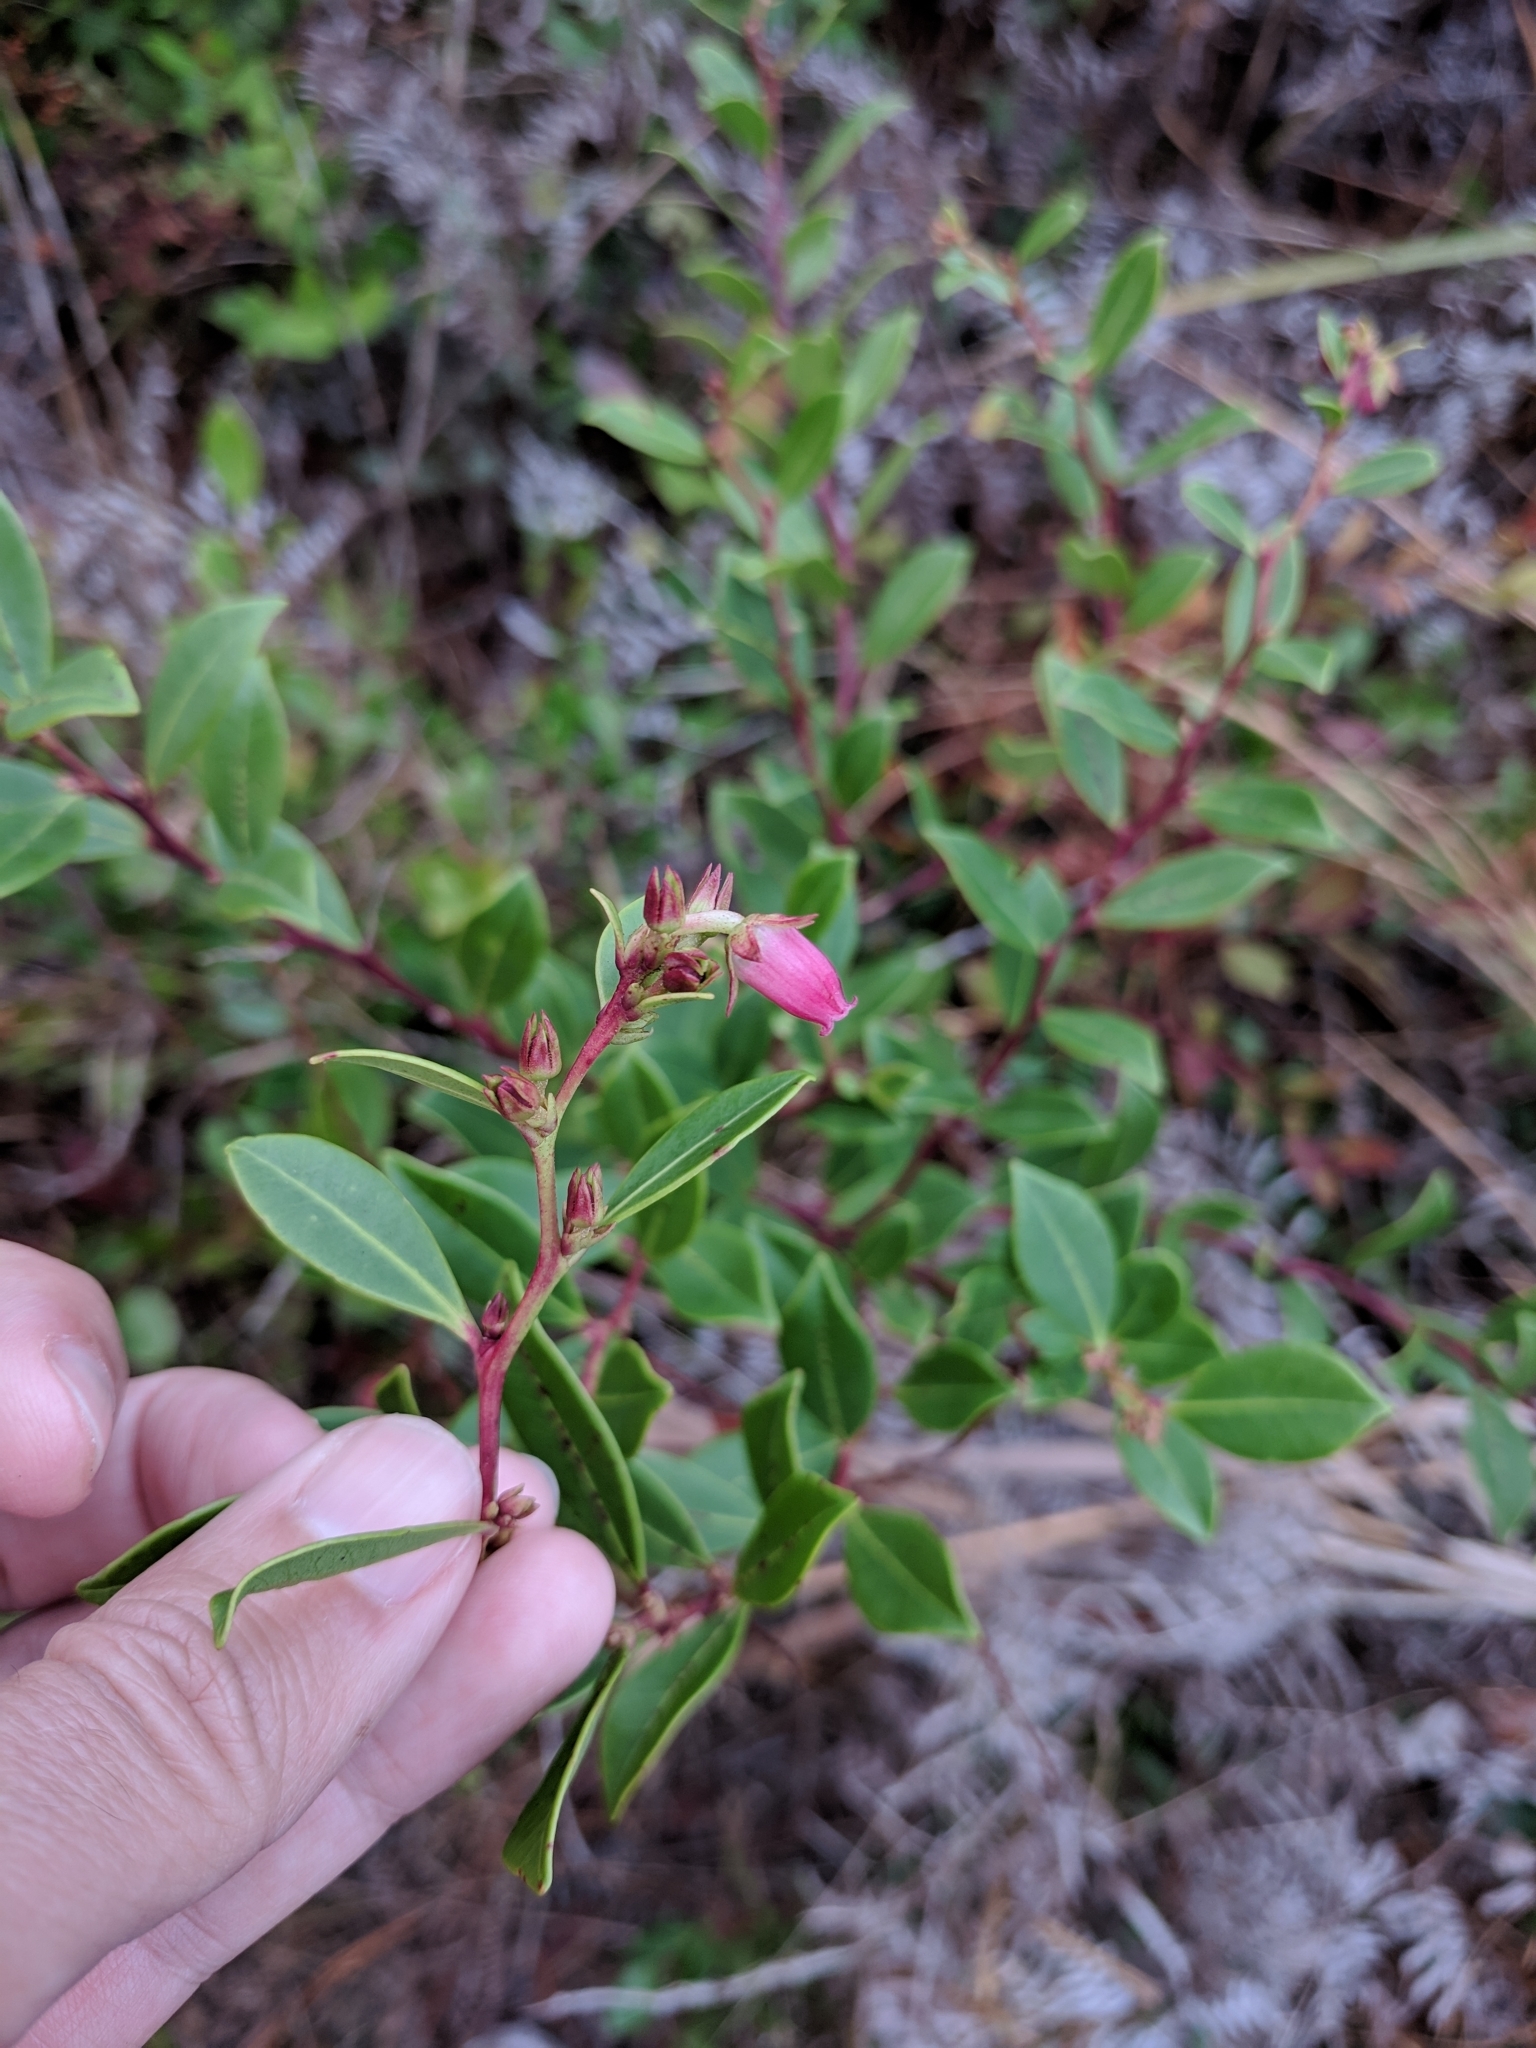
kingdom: Plantae
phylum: Tracheophyta
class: Magnoliopsida
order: Ericales
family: Ericaceae
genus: Lyonia
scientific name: Lyonia lucida
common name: Fetterbush
